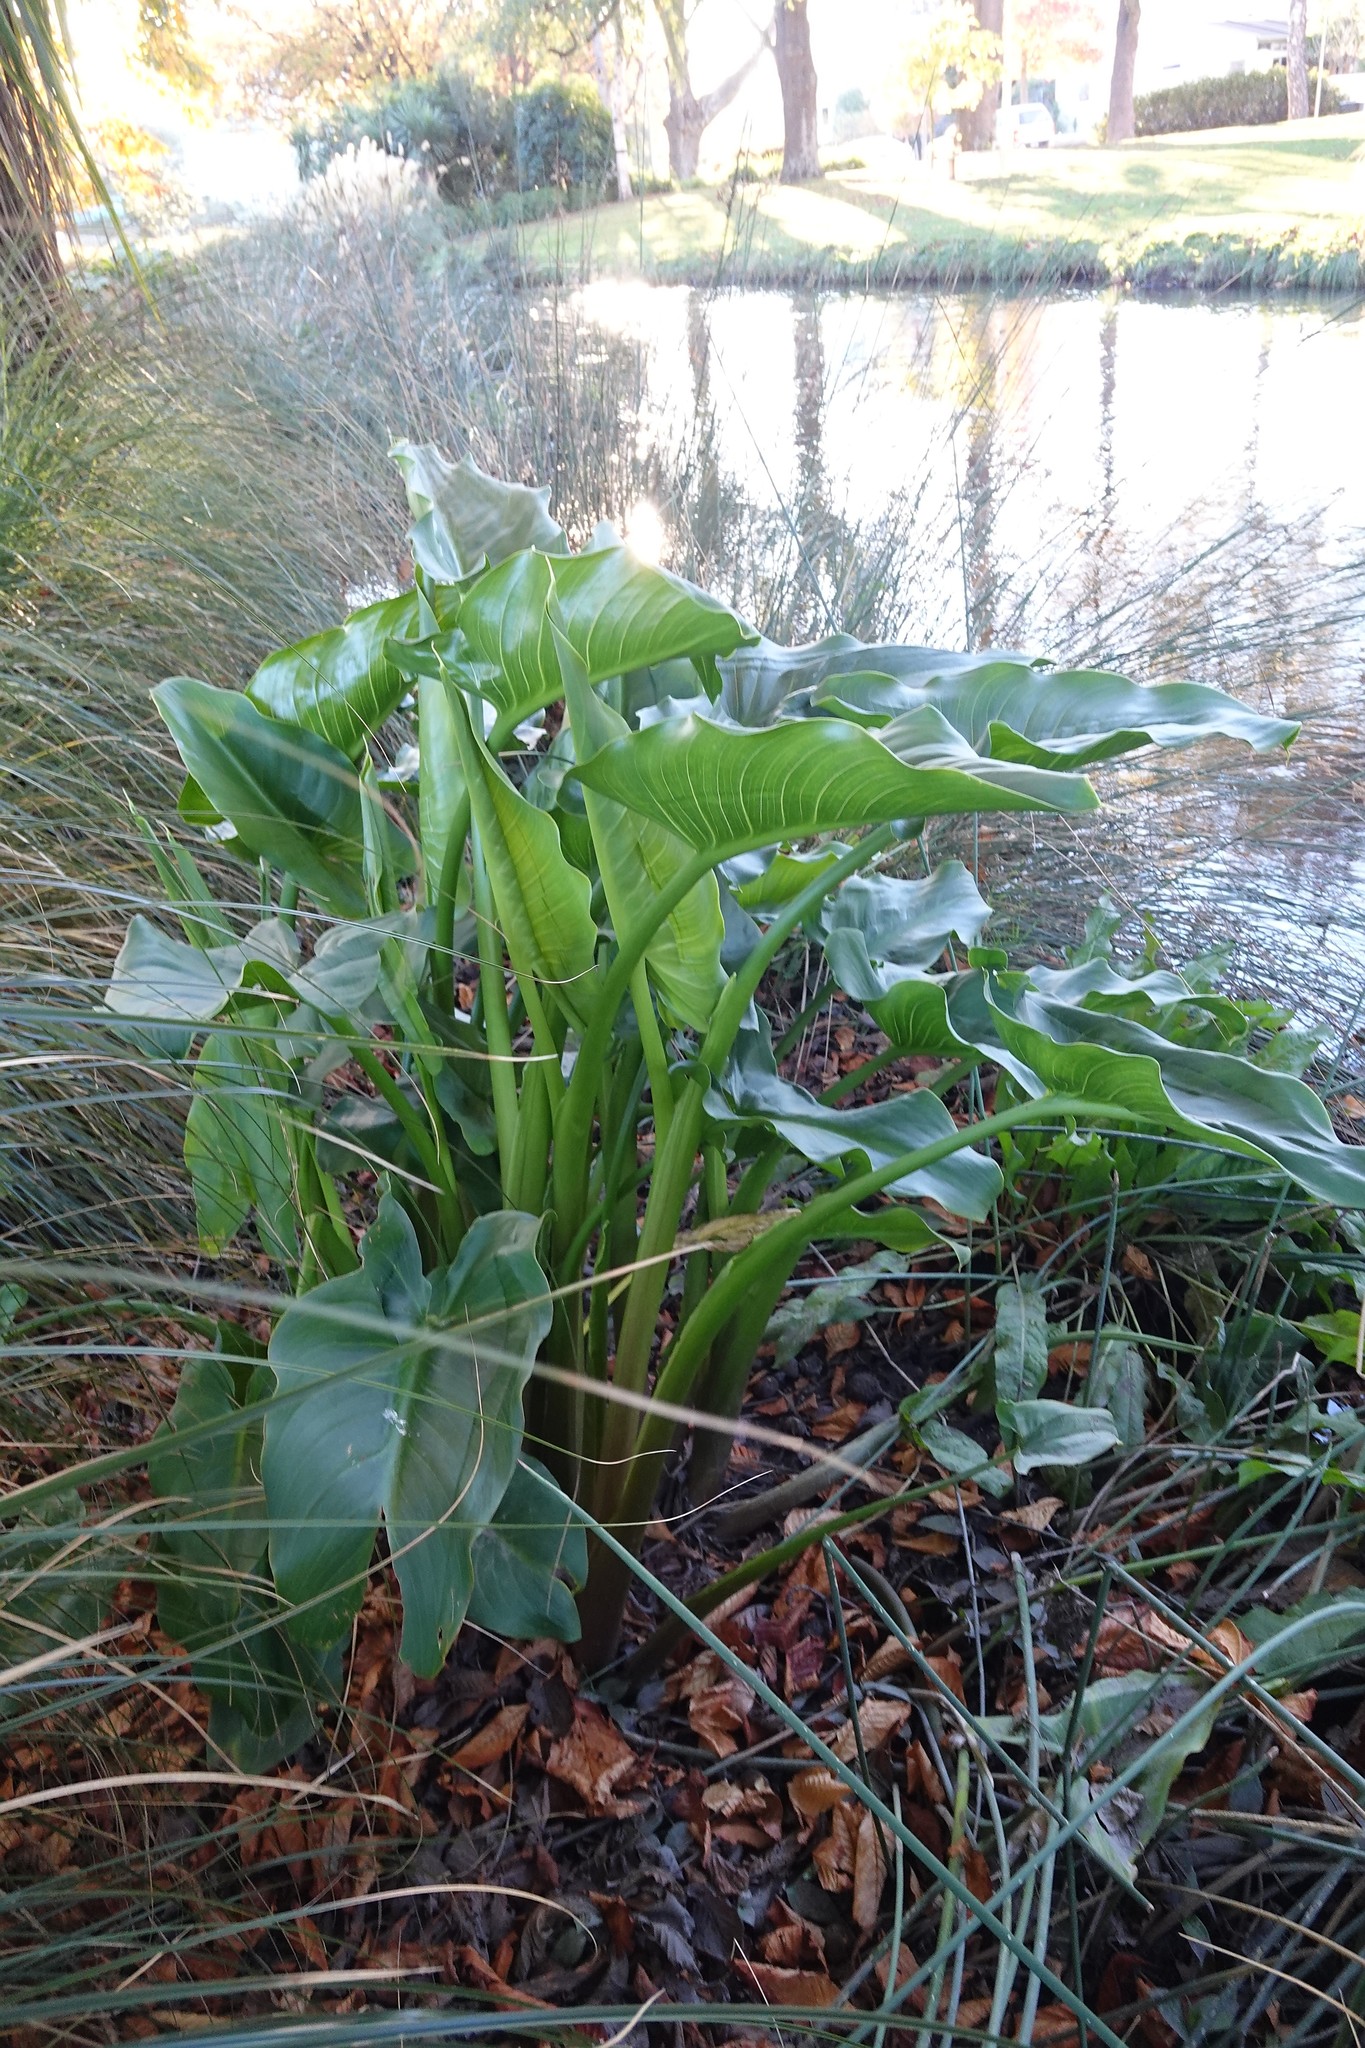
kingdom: Plantae
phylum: Tracheophyta
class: Liliopsida
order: Alismatales
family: Araceae
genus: Zantedeschia
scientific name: Zantedeschia aethiopica
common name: Altar-lily
